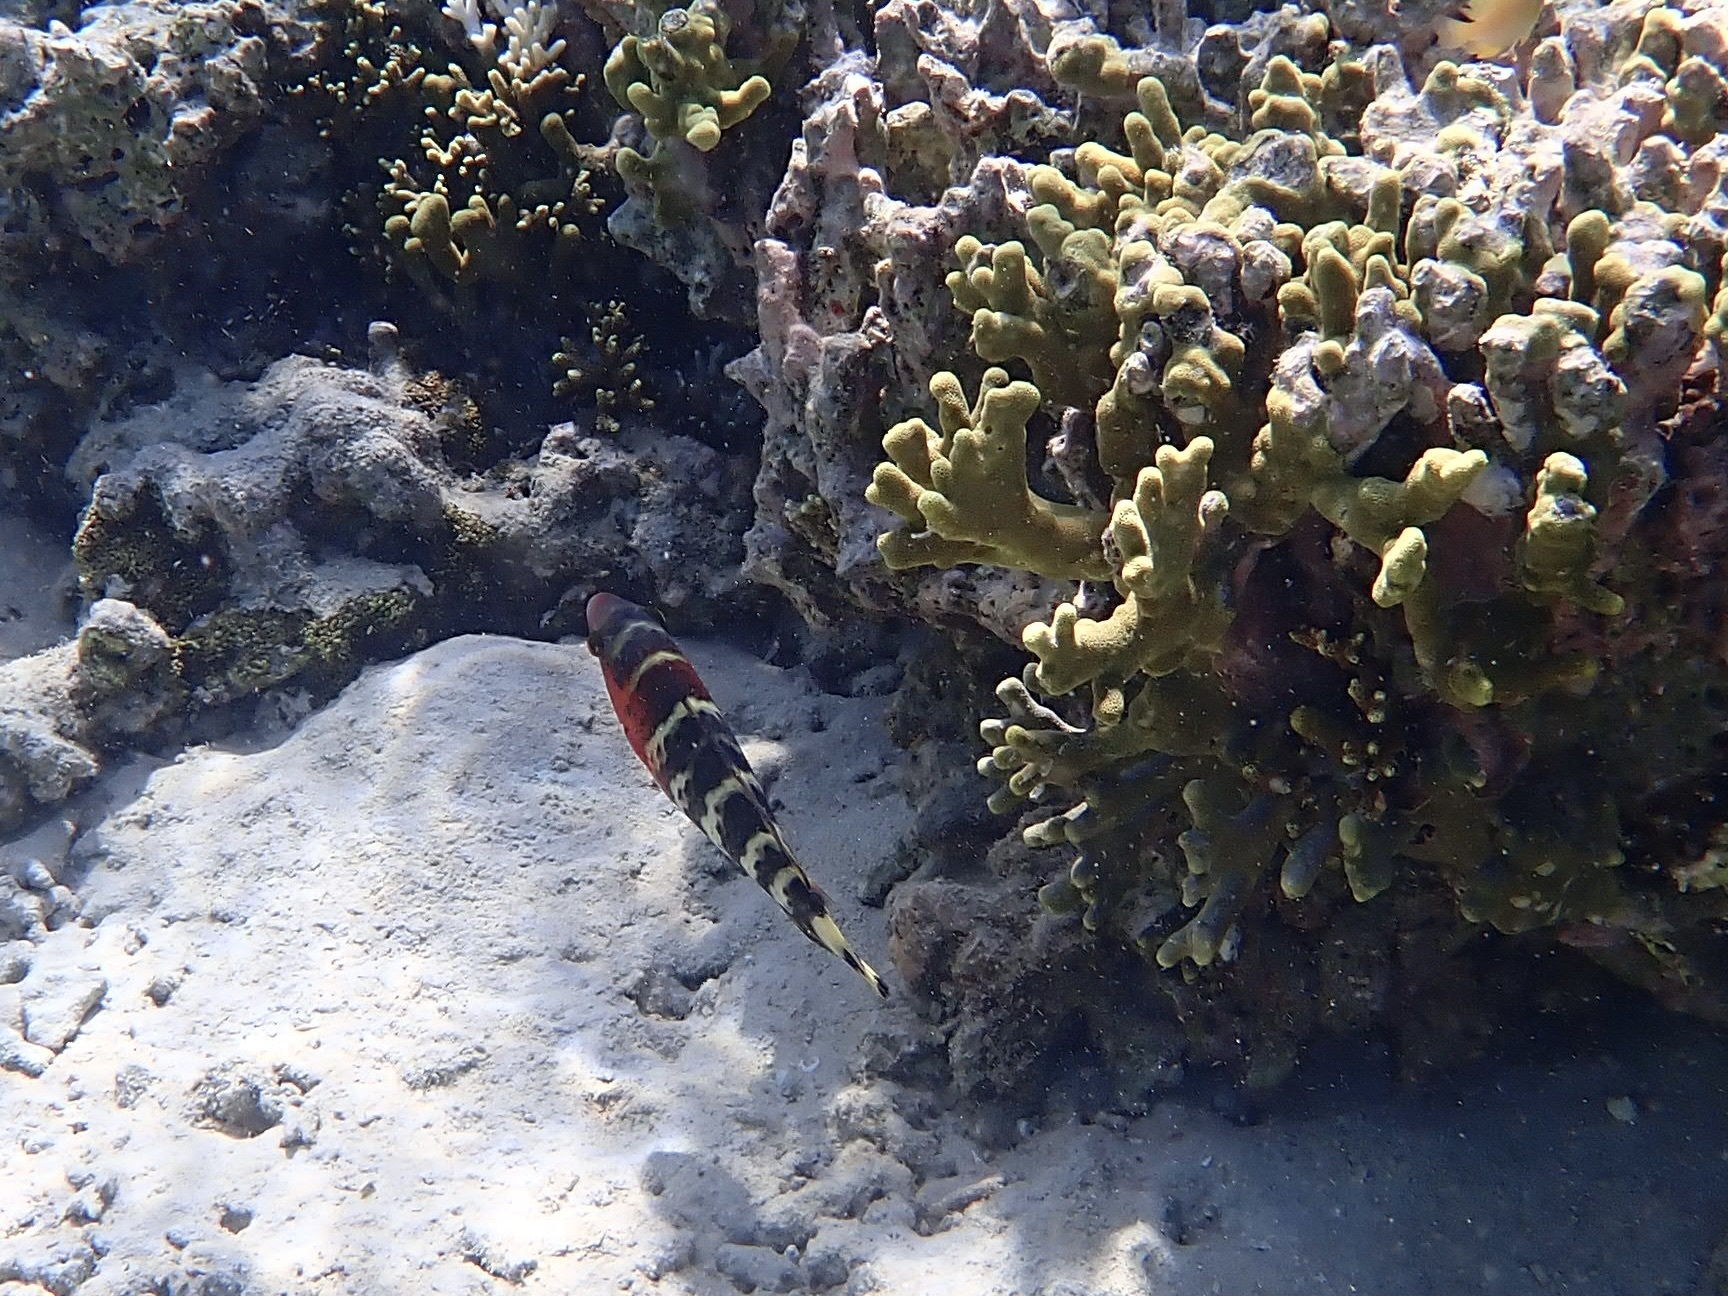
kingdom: Animalia
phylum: Chordata
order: Perciformes
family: Labridae
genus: Cheilinus
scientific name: Cheilinus fasciatus
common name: Red-breasted wrasse
